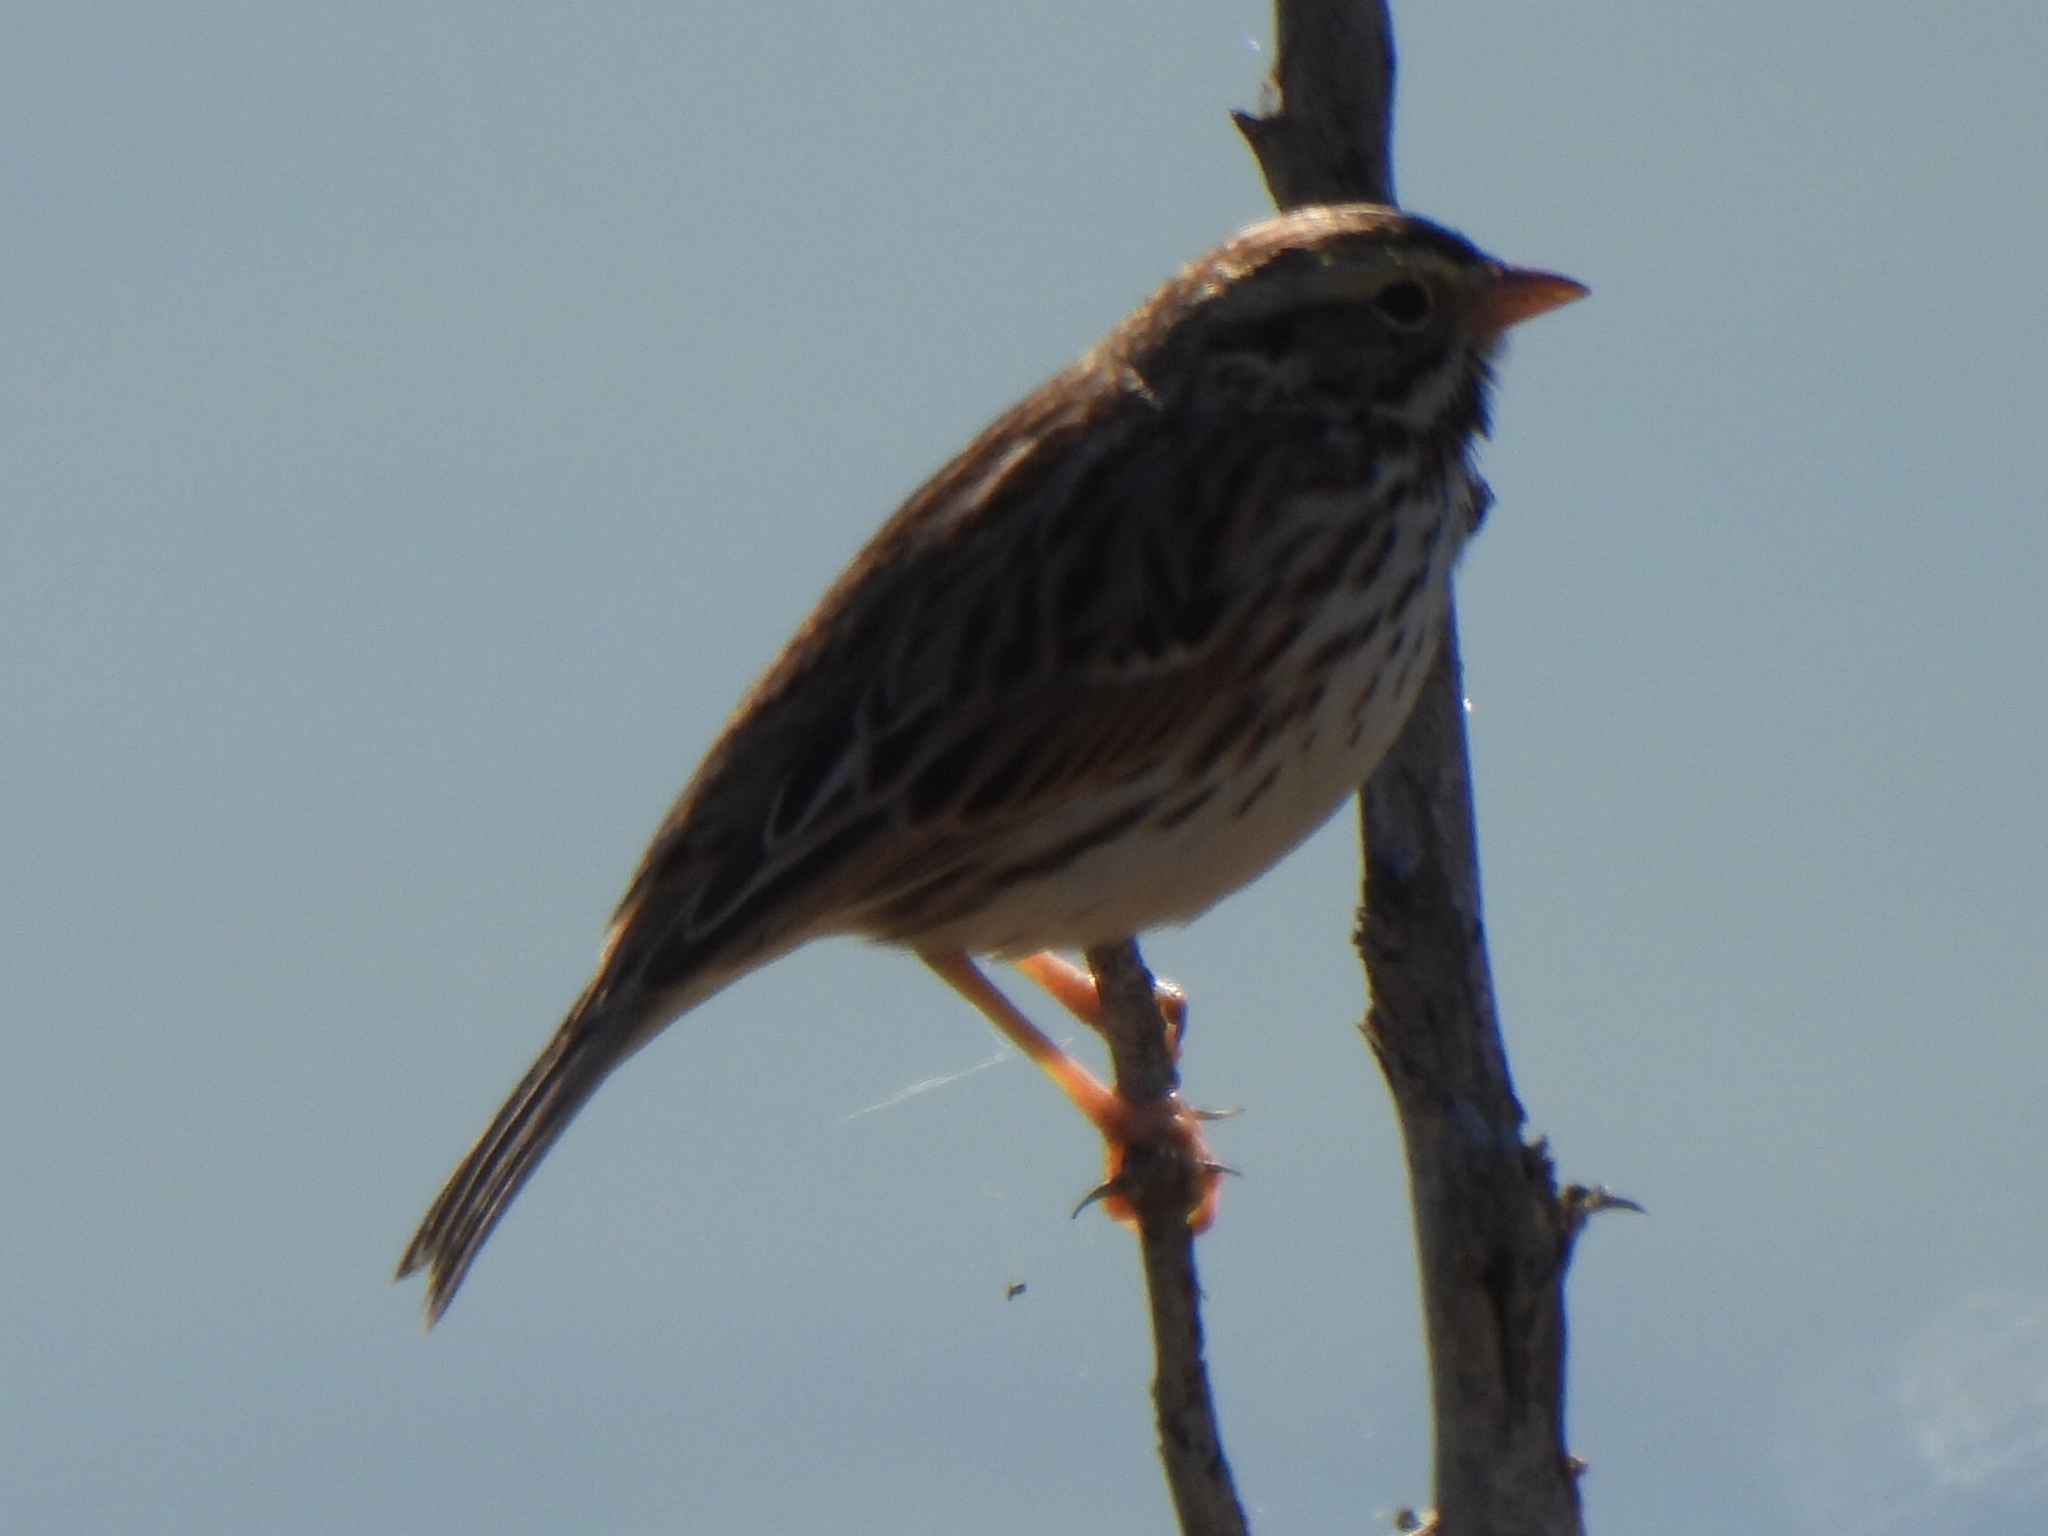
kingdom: Animalia
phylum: Chordata
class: Aves
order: Passeriformes
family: Passerellidae
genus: Passerculus
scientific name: Passerculus sandwichensis
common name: Savannah sparrow
